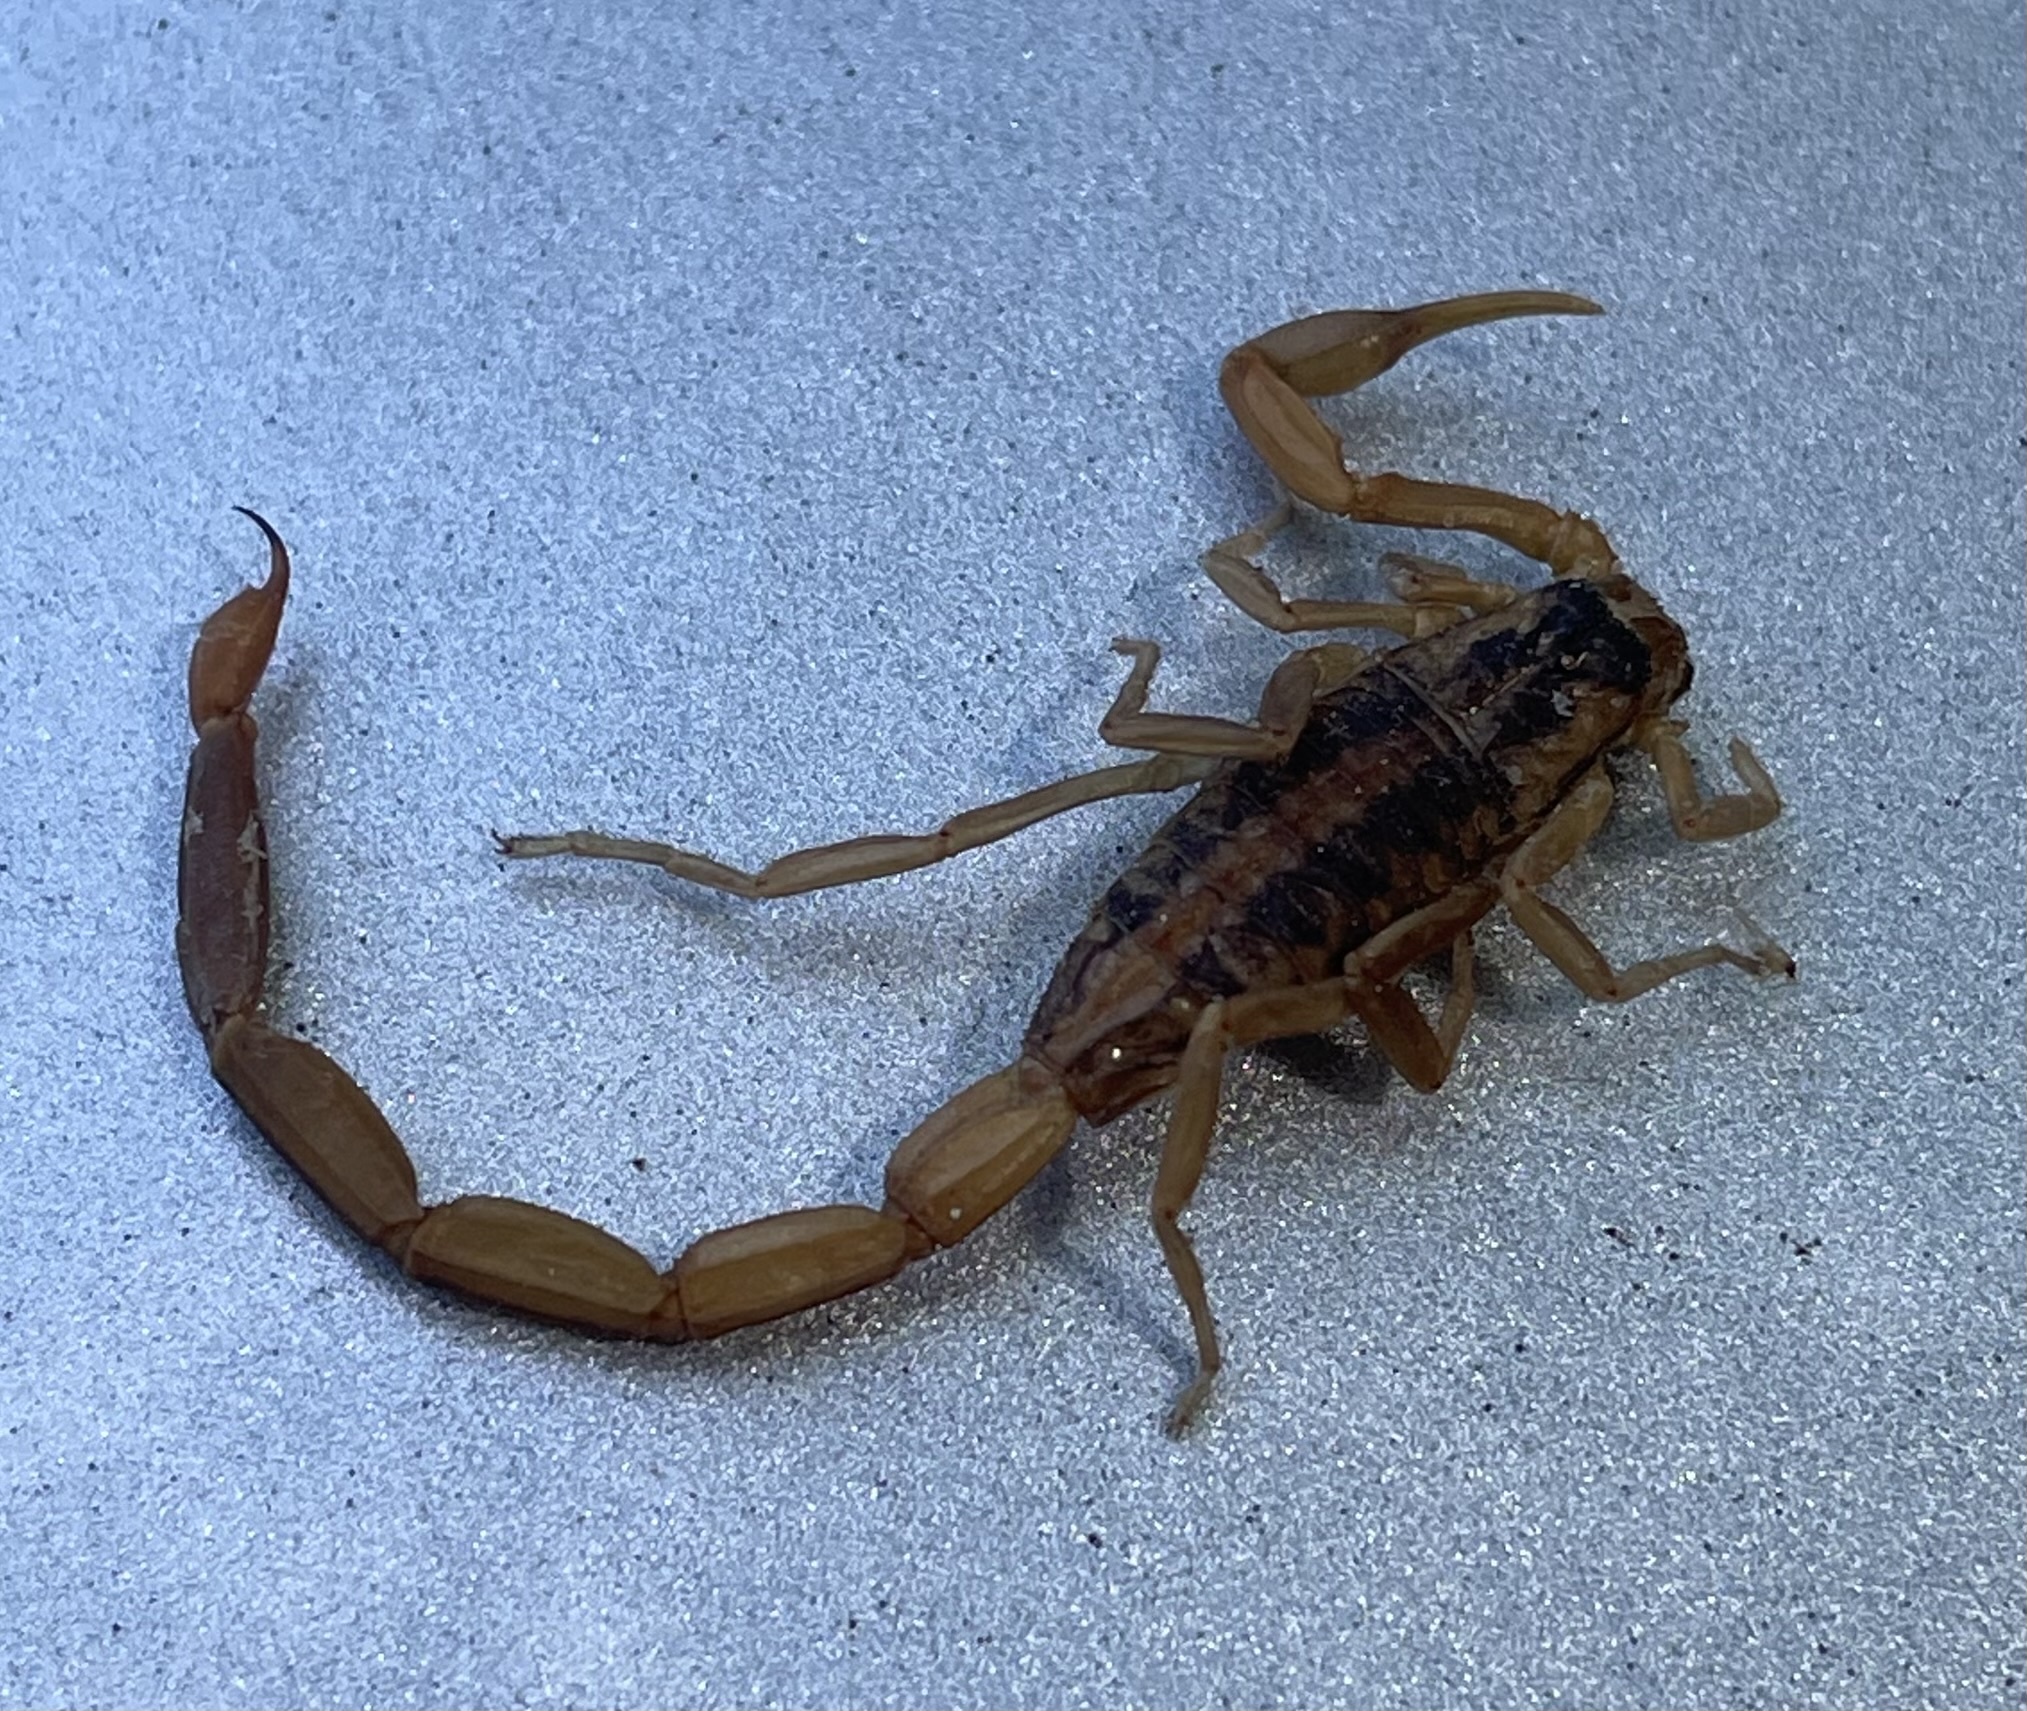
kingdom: Animalia
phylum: Arthropoda
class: Arachnida
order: Scorpiones
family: Buthidae
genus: Centruroides
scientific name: Centruroides vittatus
